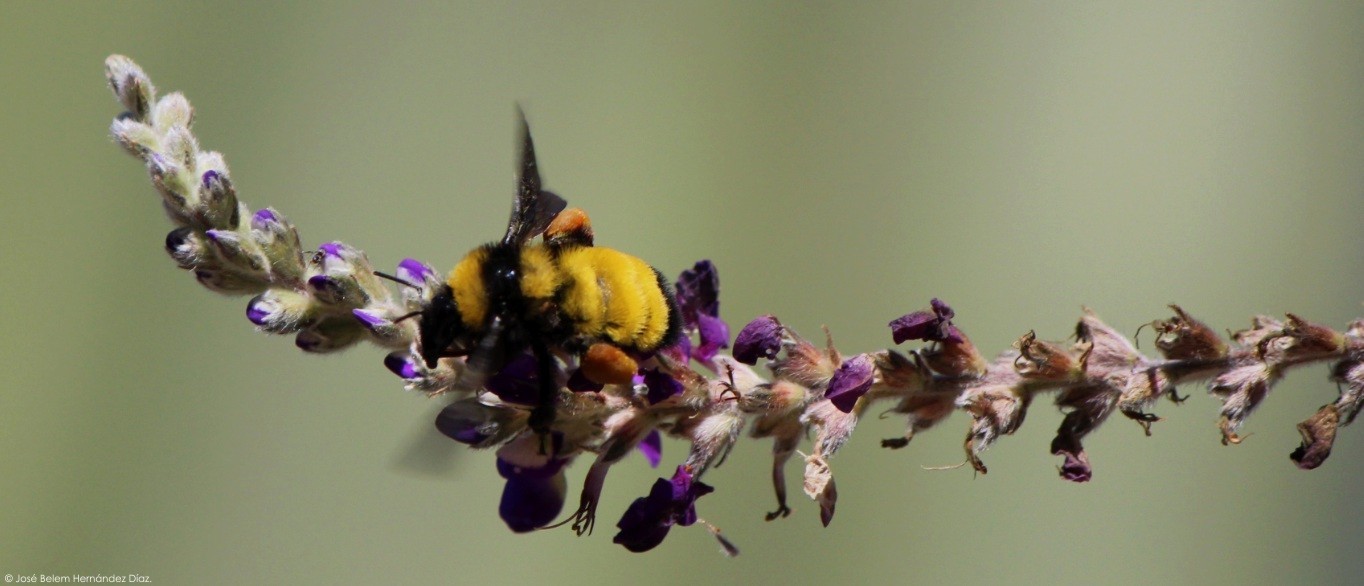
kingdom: Animalia
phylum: Arthropoda
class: Insecta
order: Hymenoptera
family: Apidae
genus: Bombus
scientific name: Bombus sonorus
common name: Sonoran bumble bee
